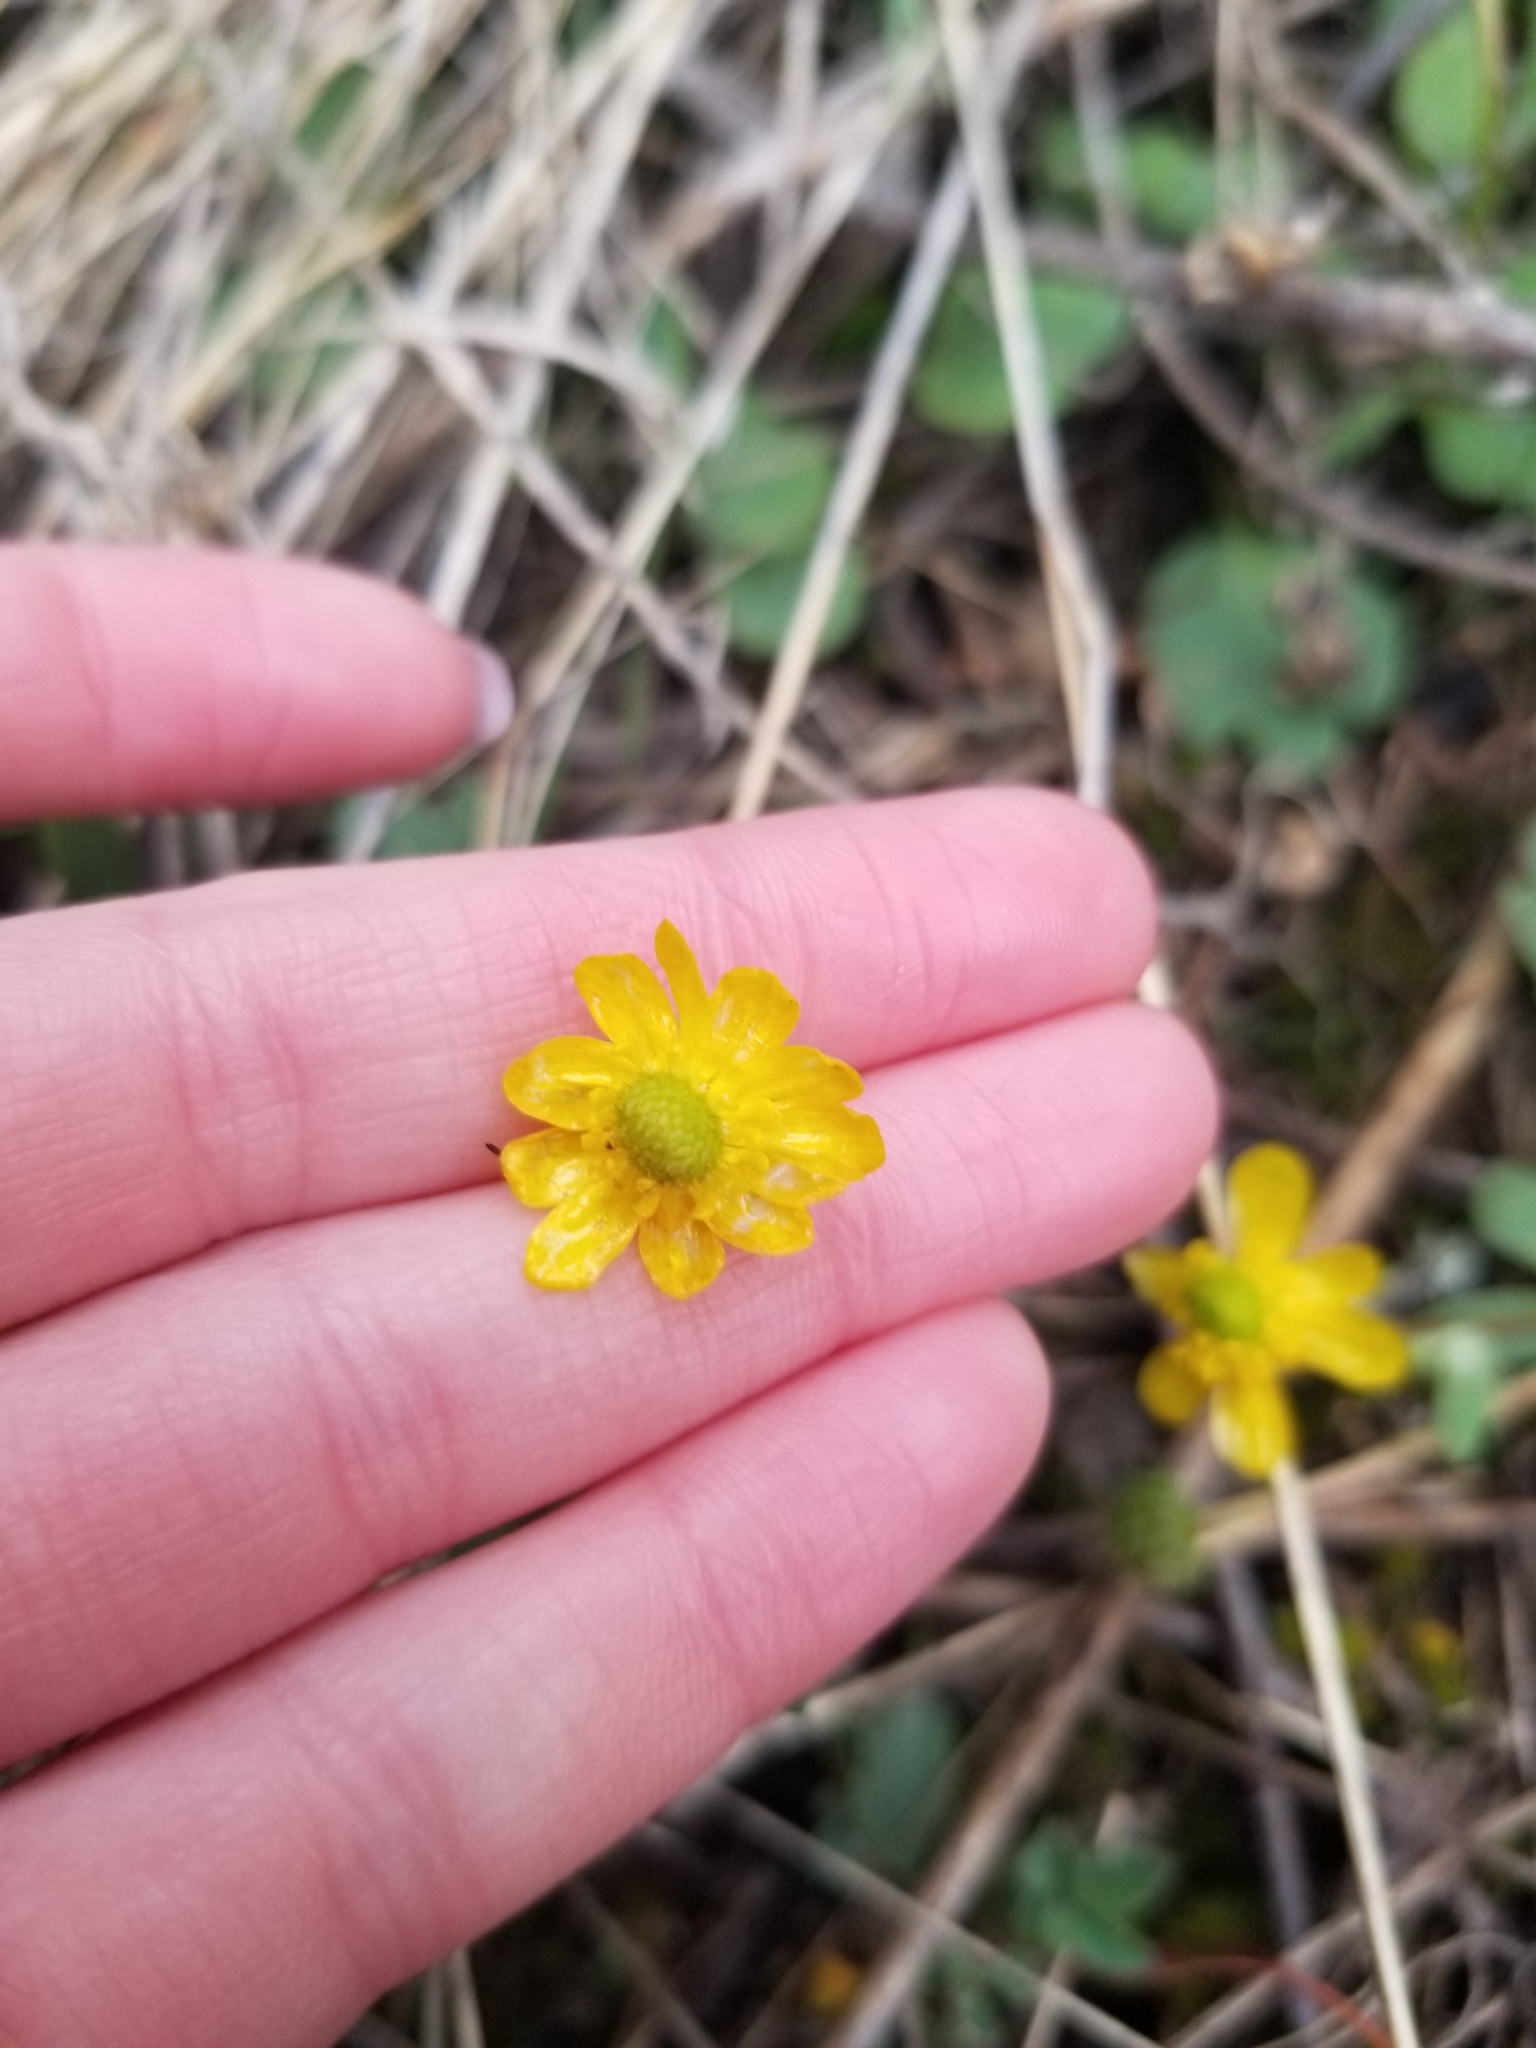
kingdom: Plantae
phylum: Tracheophyta
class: Magnoliopsida
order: Ranunculales
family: Ranunculaceae
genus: Ranunculus
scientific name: Ranunculus glaberrimus
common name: Sagebrush buttercup
